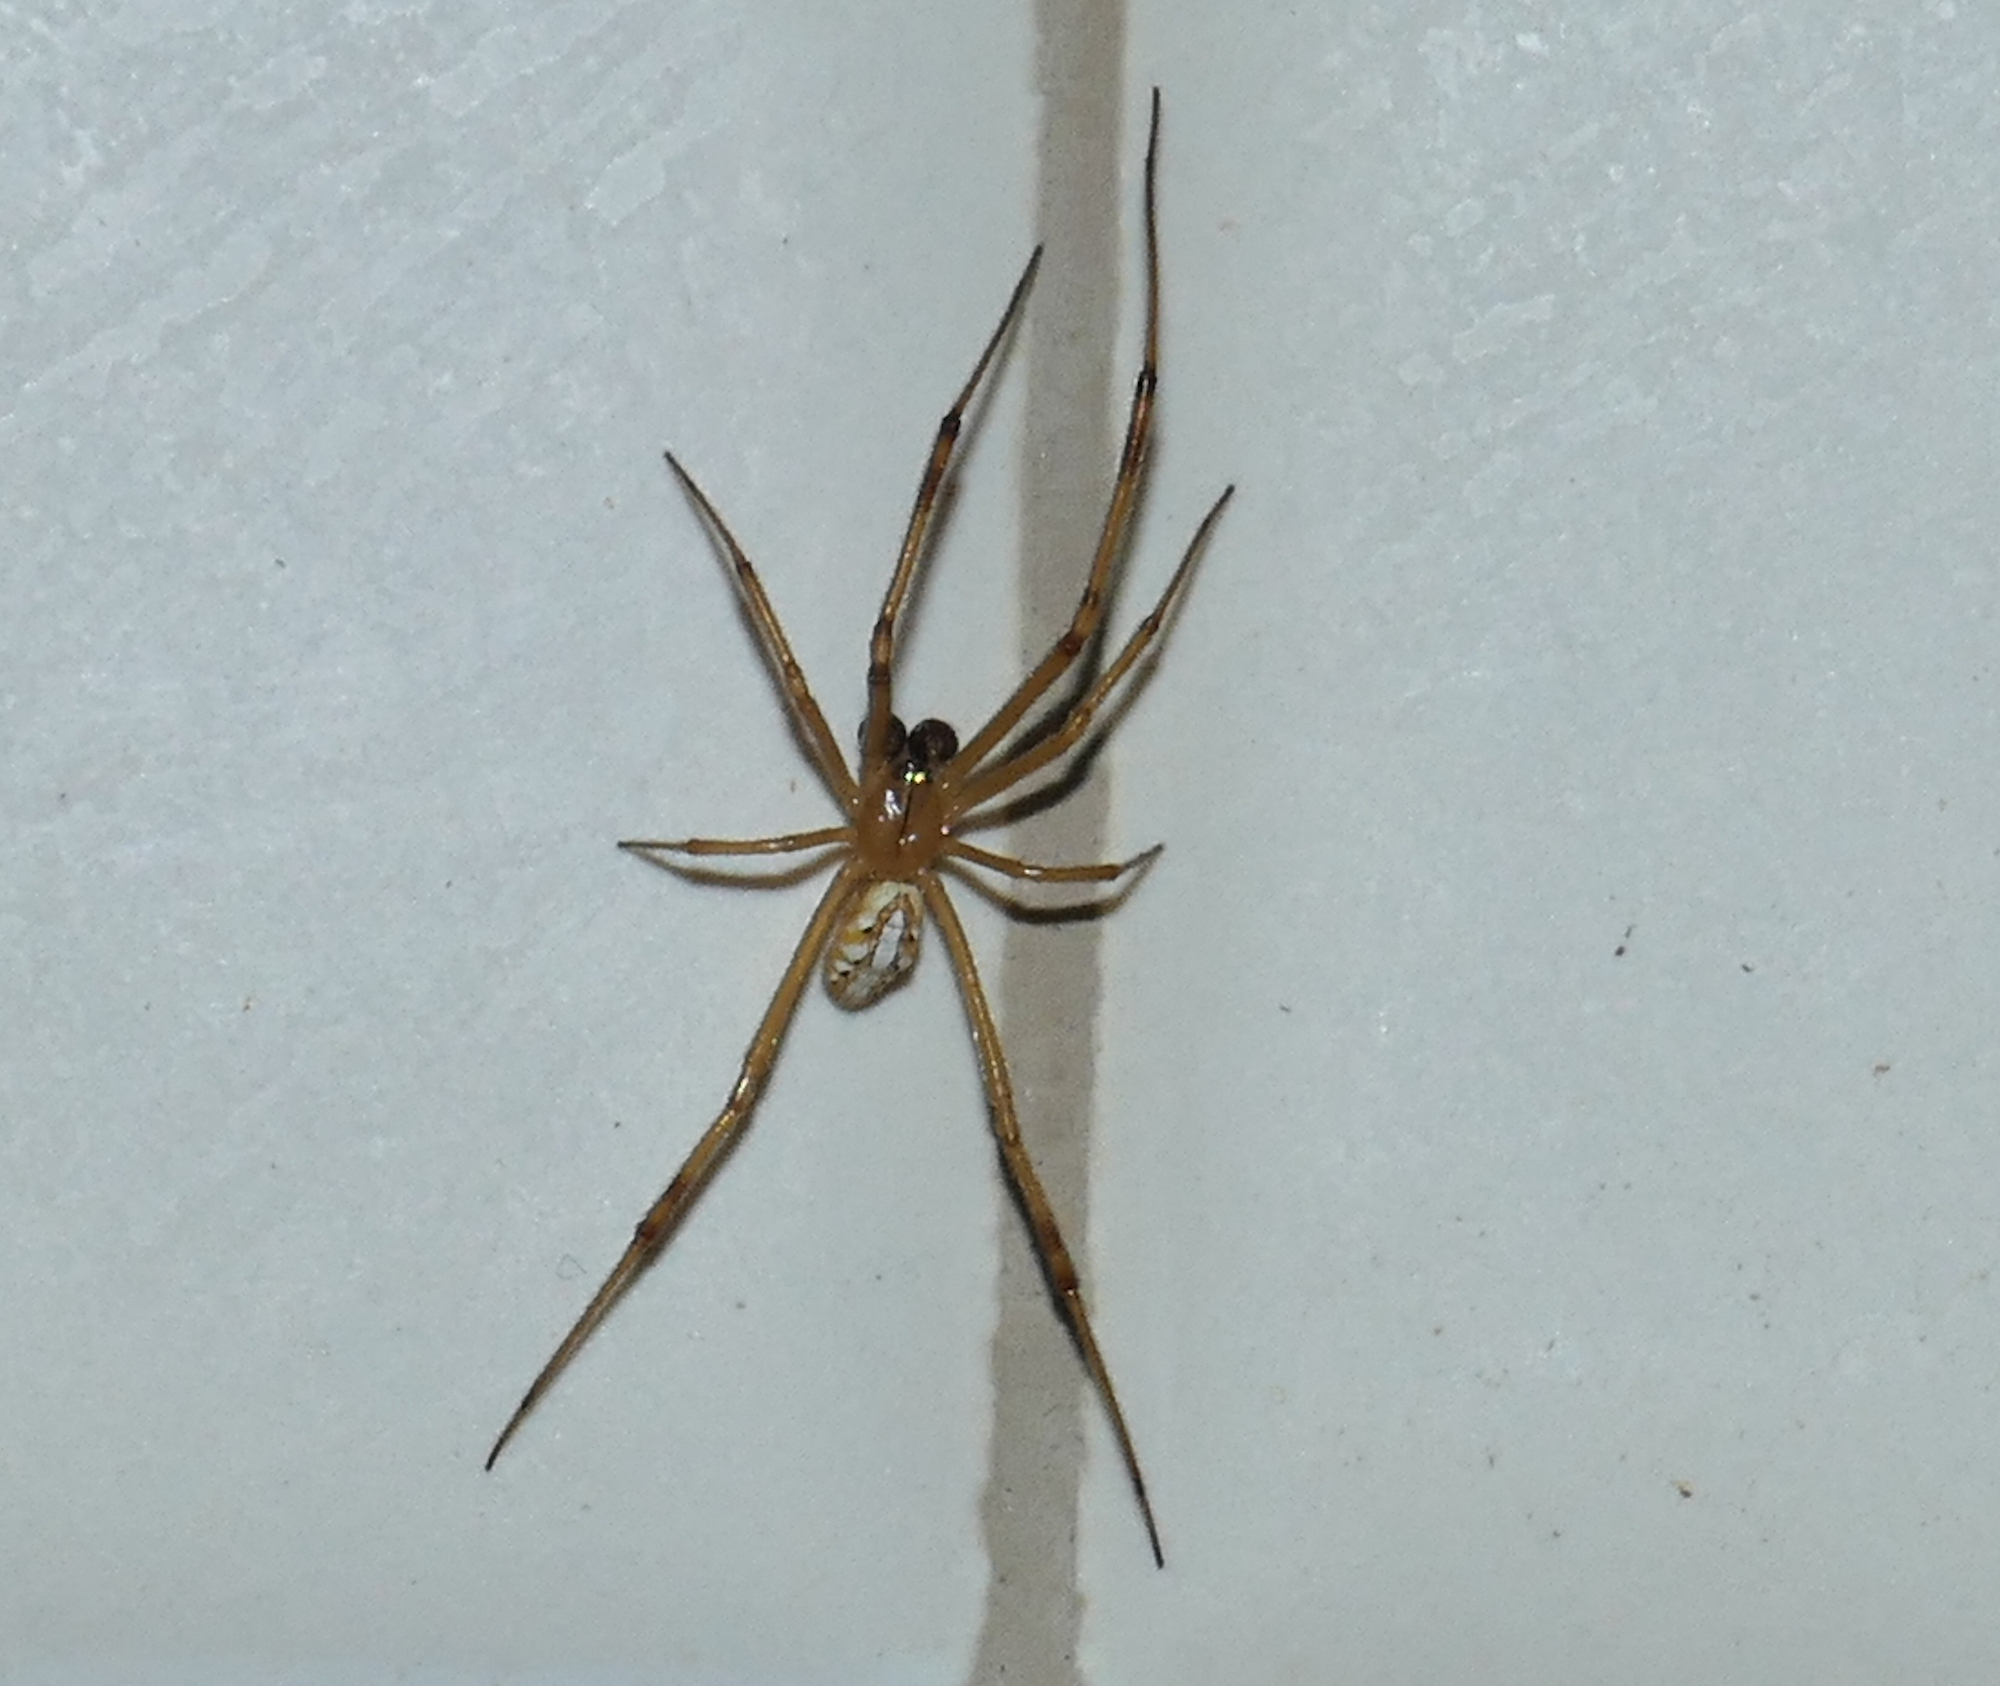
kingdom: Animalia
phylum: Arthropoda
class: Arachnida
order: Araneae
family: Theridiidae
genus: Latrodectus
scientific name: Latrodectus hesperus
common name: Western black widow
